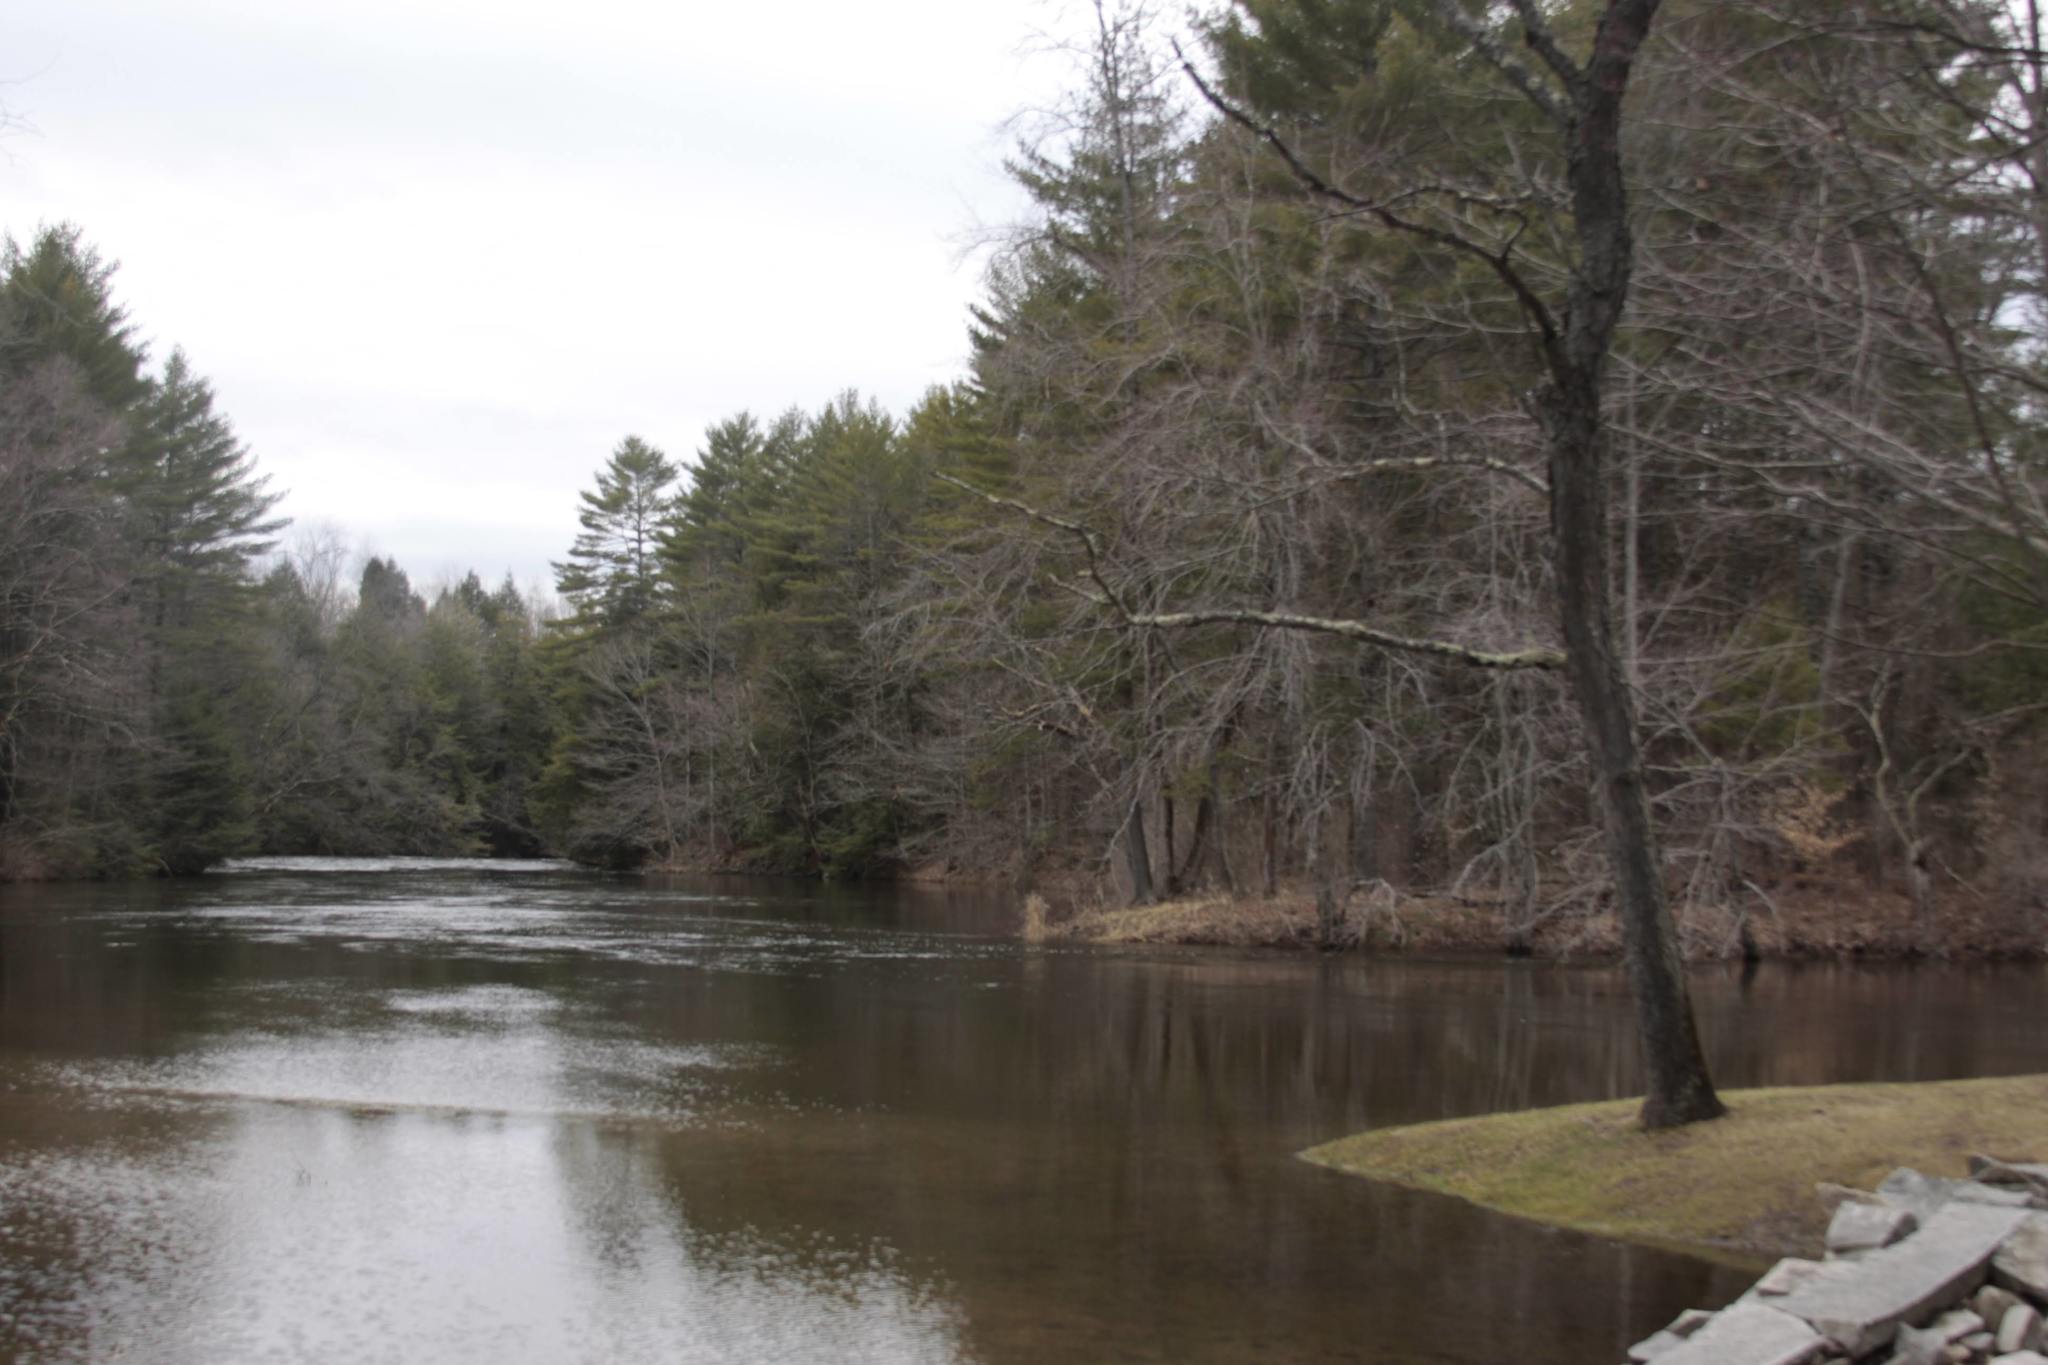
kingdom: Plantae
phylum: Tracheophyta
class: Pinopsida
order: Pinales
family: Pinaceae
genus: Pinus
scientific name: Pinus strobus
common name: Weymouth pine
